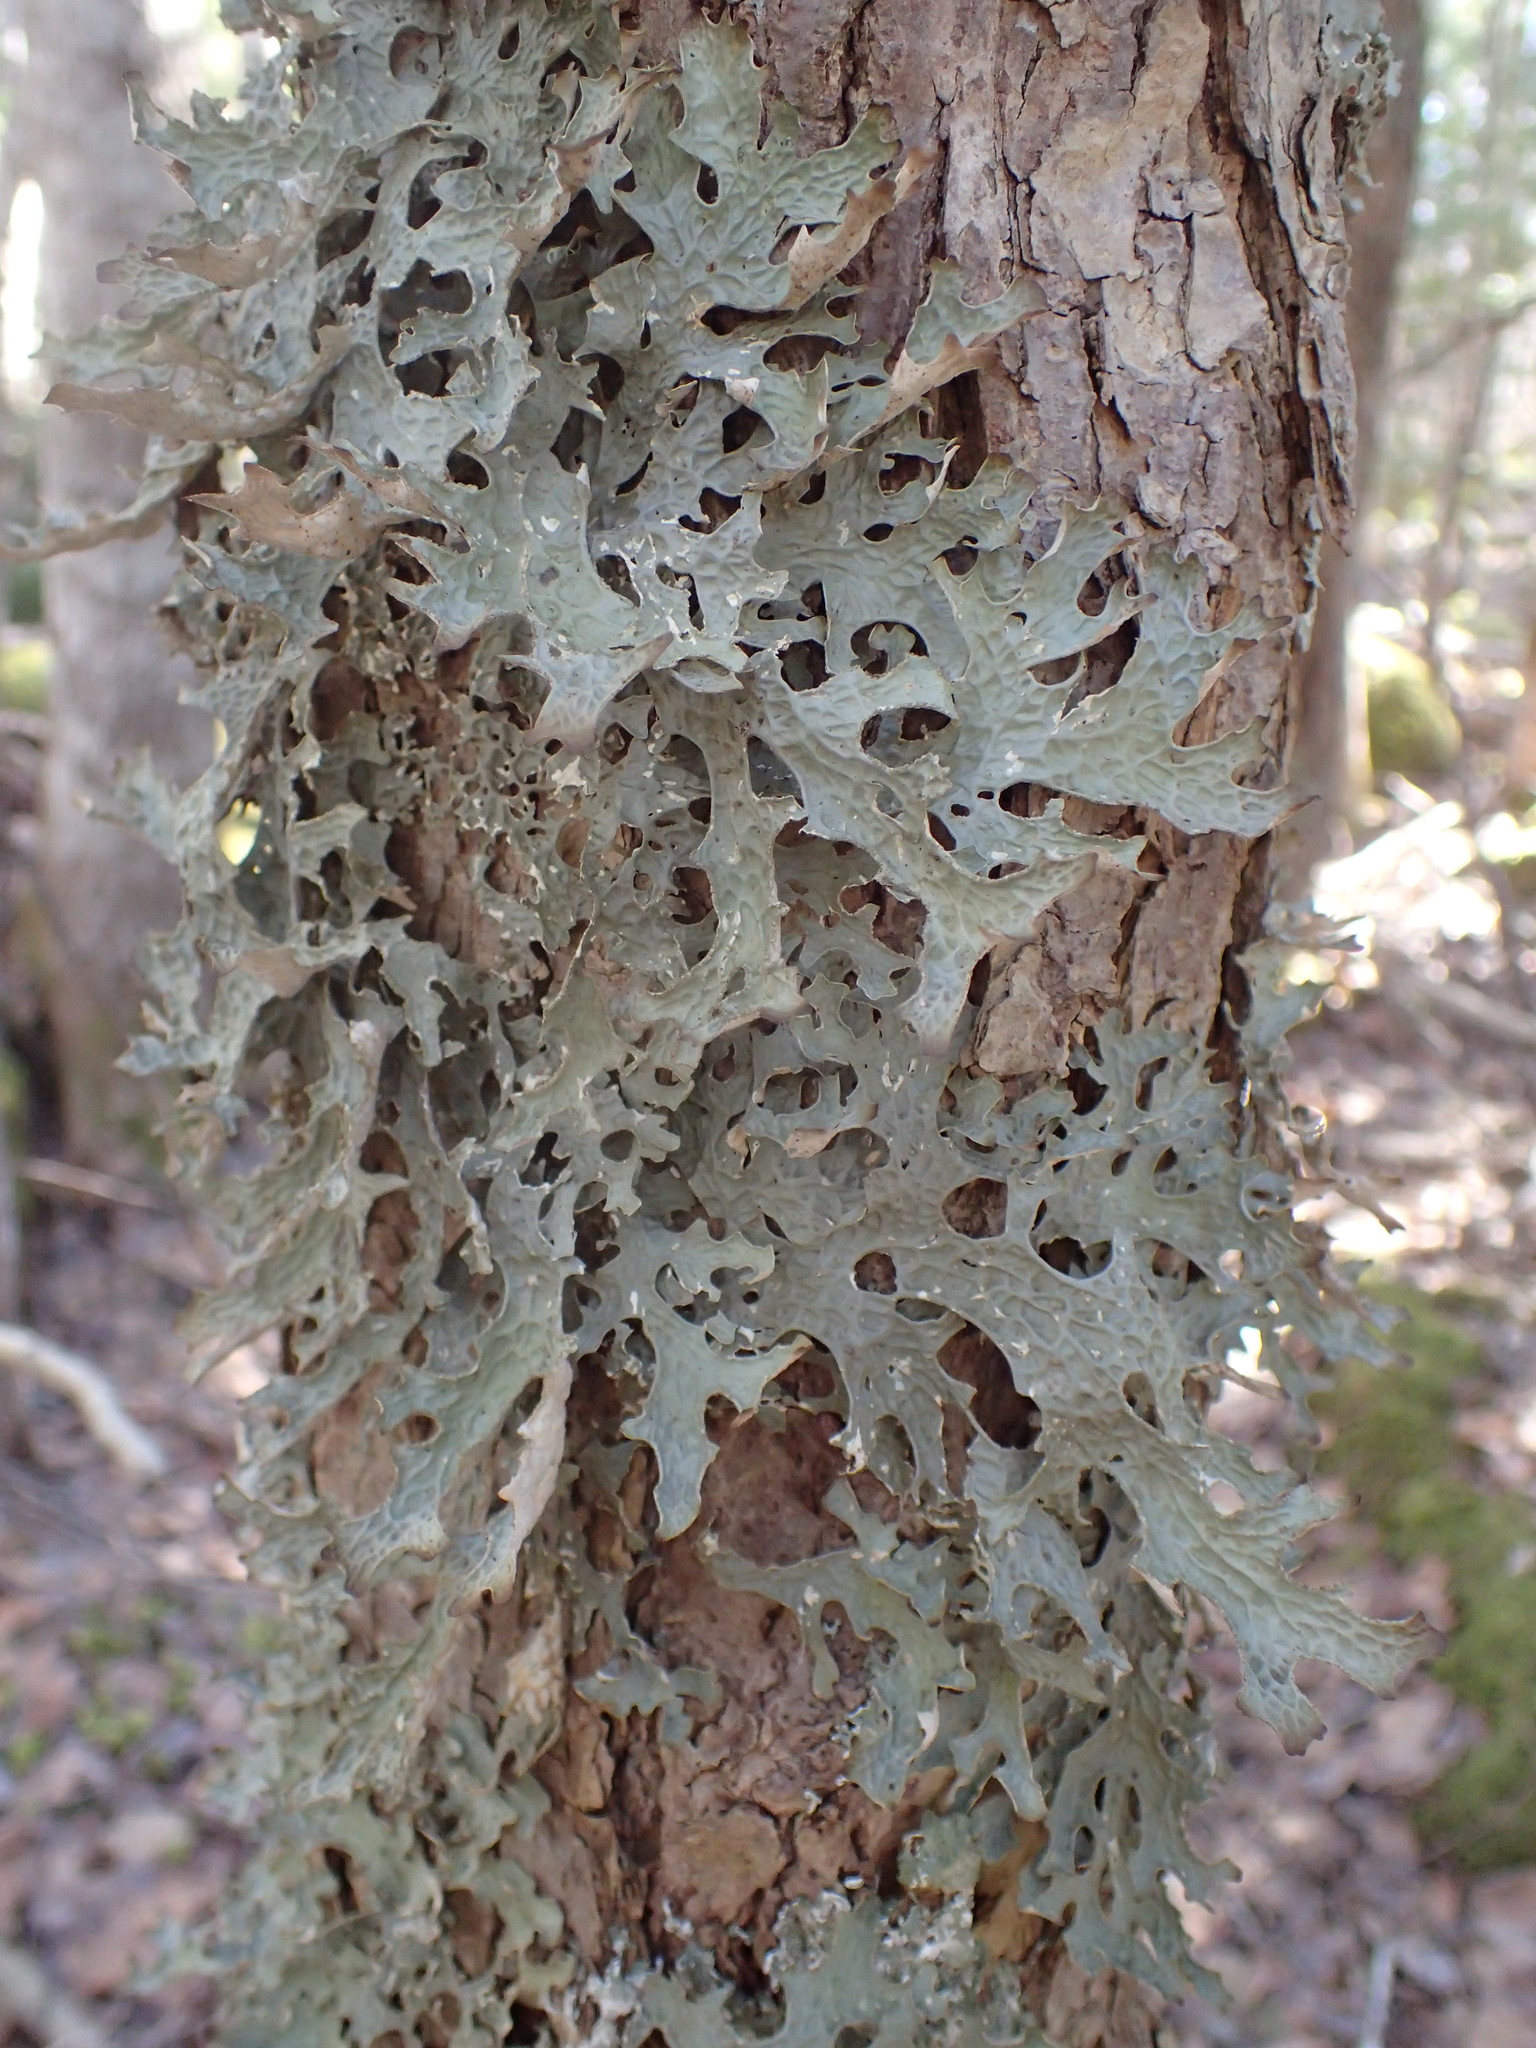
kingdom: Fungi
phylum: Ascomycota
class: Lecanoromycetes
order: Peltigerales
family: Lobariaceae
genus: Lobaria
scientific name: Lobaria pulmonaria
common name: Lungwort
